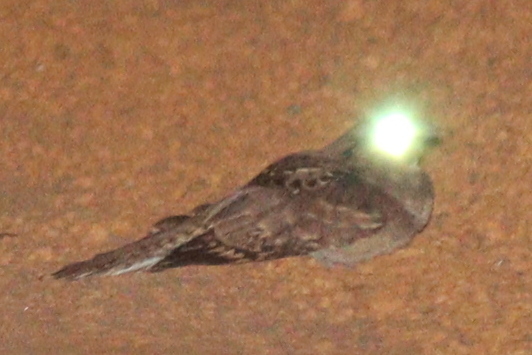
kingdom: Animalia
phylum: Chordata
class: Aves
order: Caprimulgiformes
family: Caprimulgidae
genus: Nyctidromus
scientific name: Nyctidromus albicollis
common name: Pauraque
